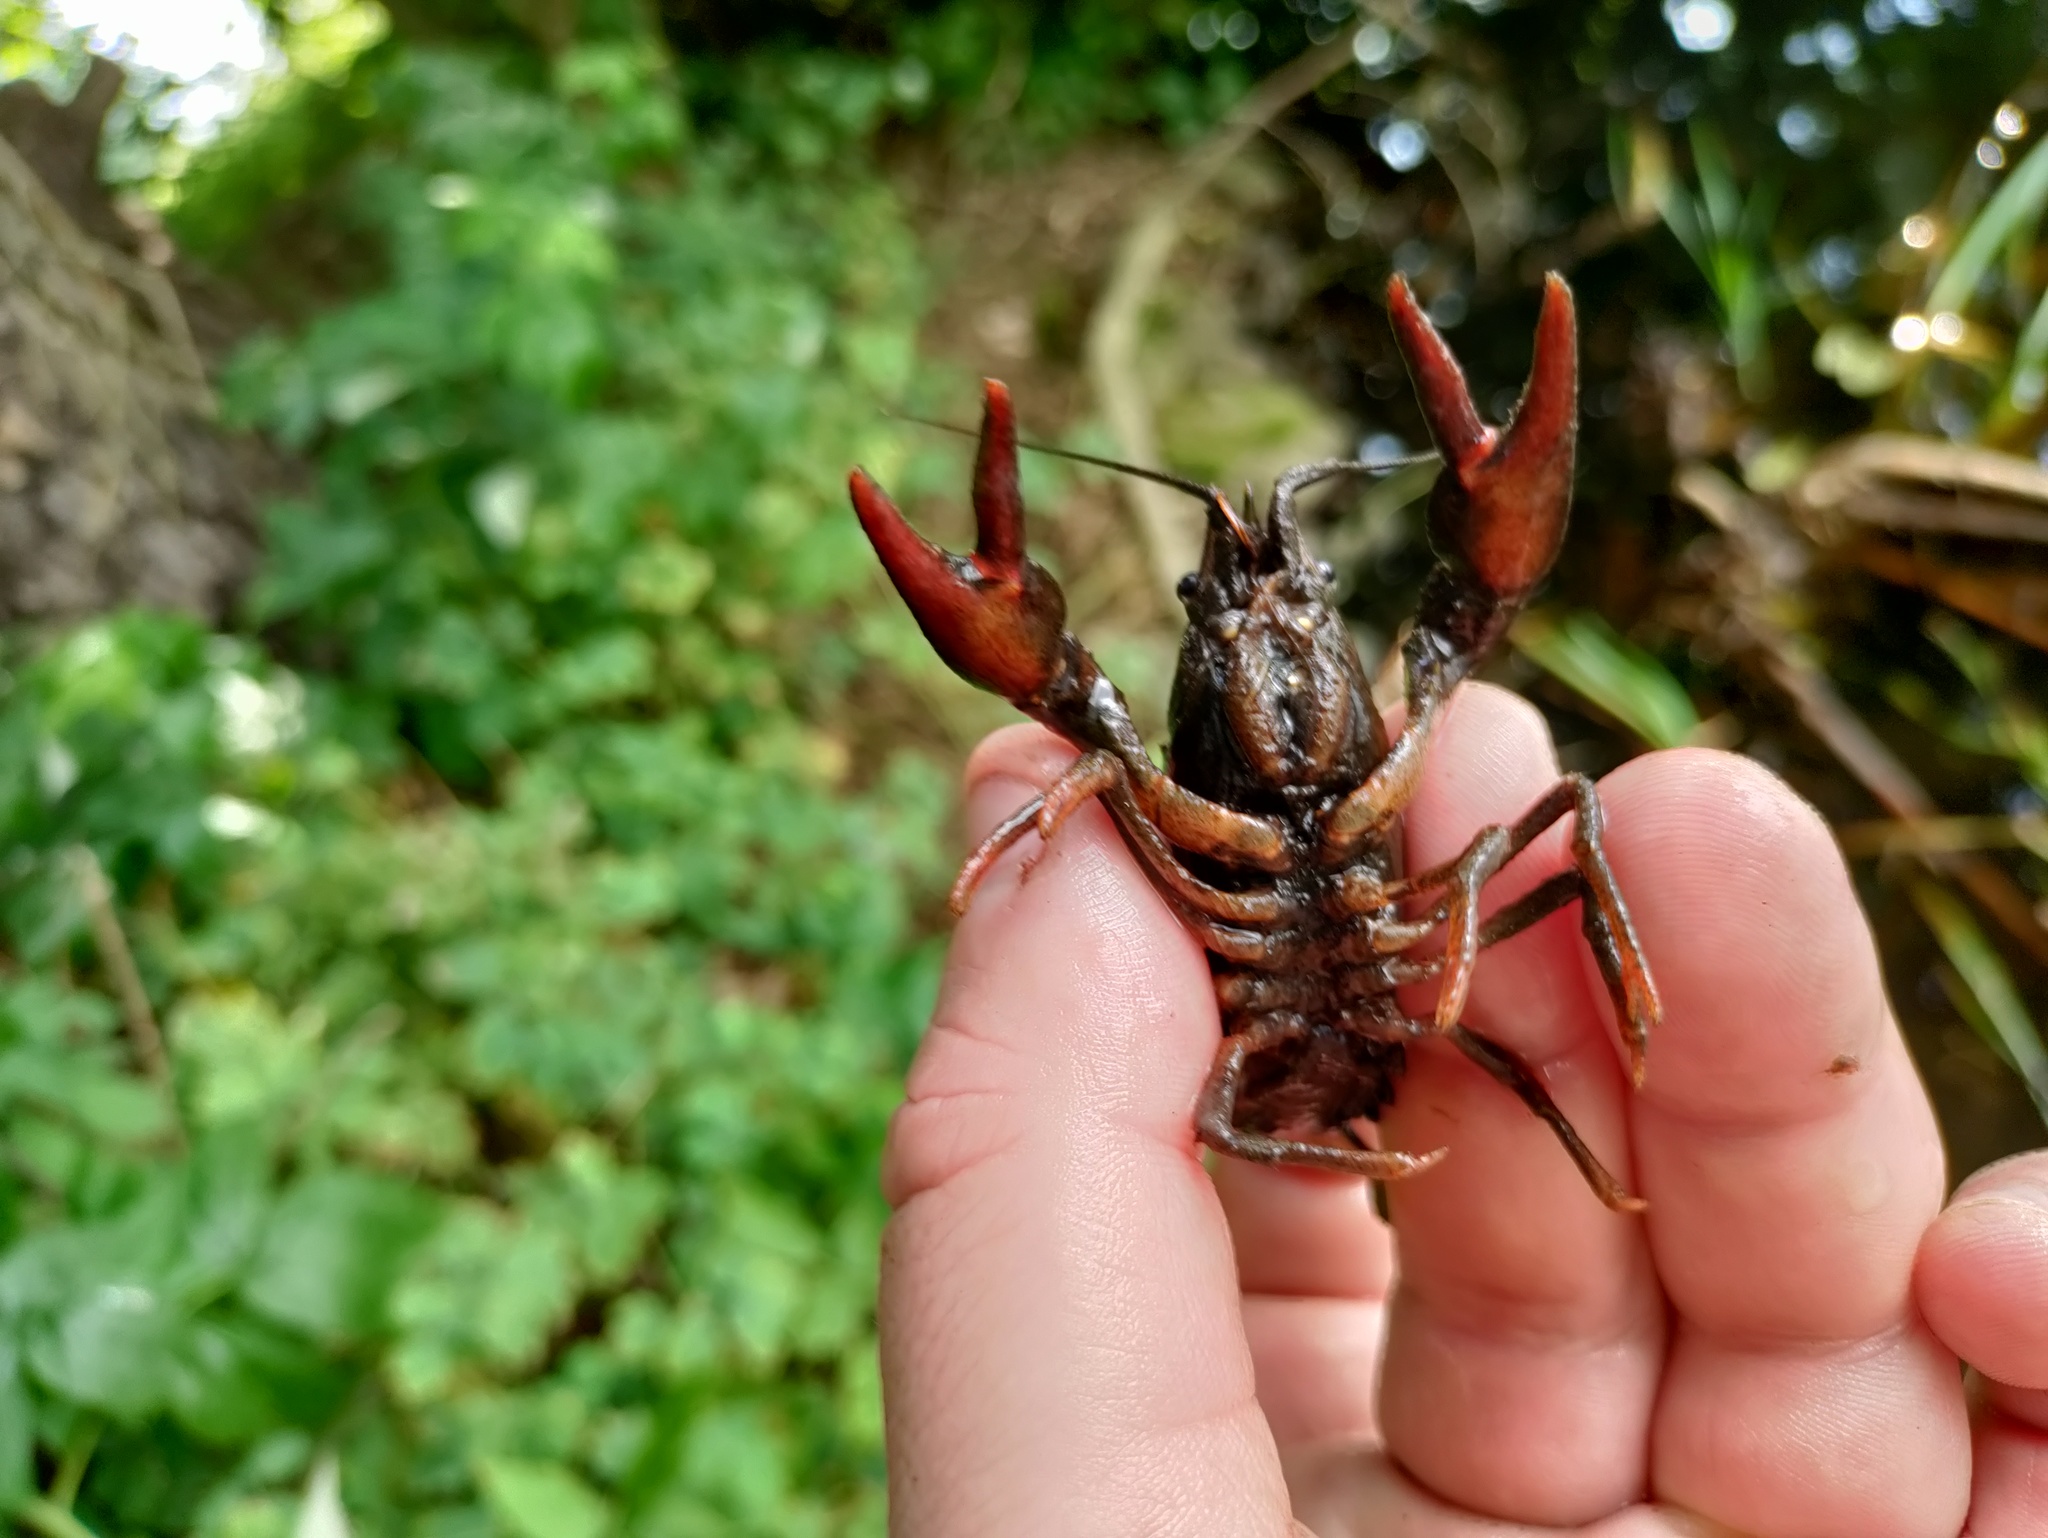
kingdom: Animalia
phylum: Arthropoda
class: Malacostraca
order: Decapoda
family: Astacidae
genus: Astacus
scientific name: Astacus astacus
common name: Noble crayfish
